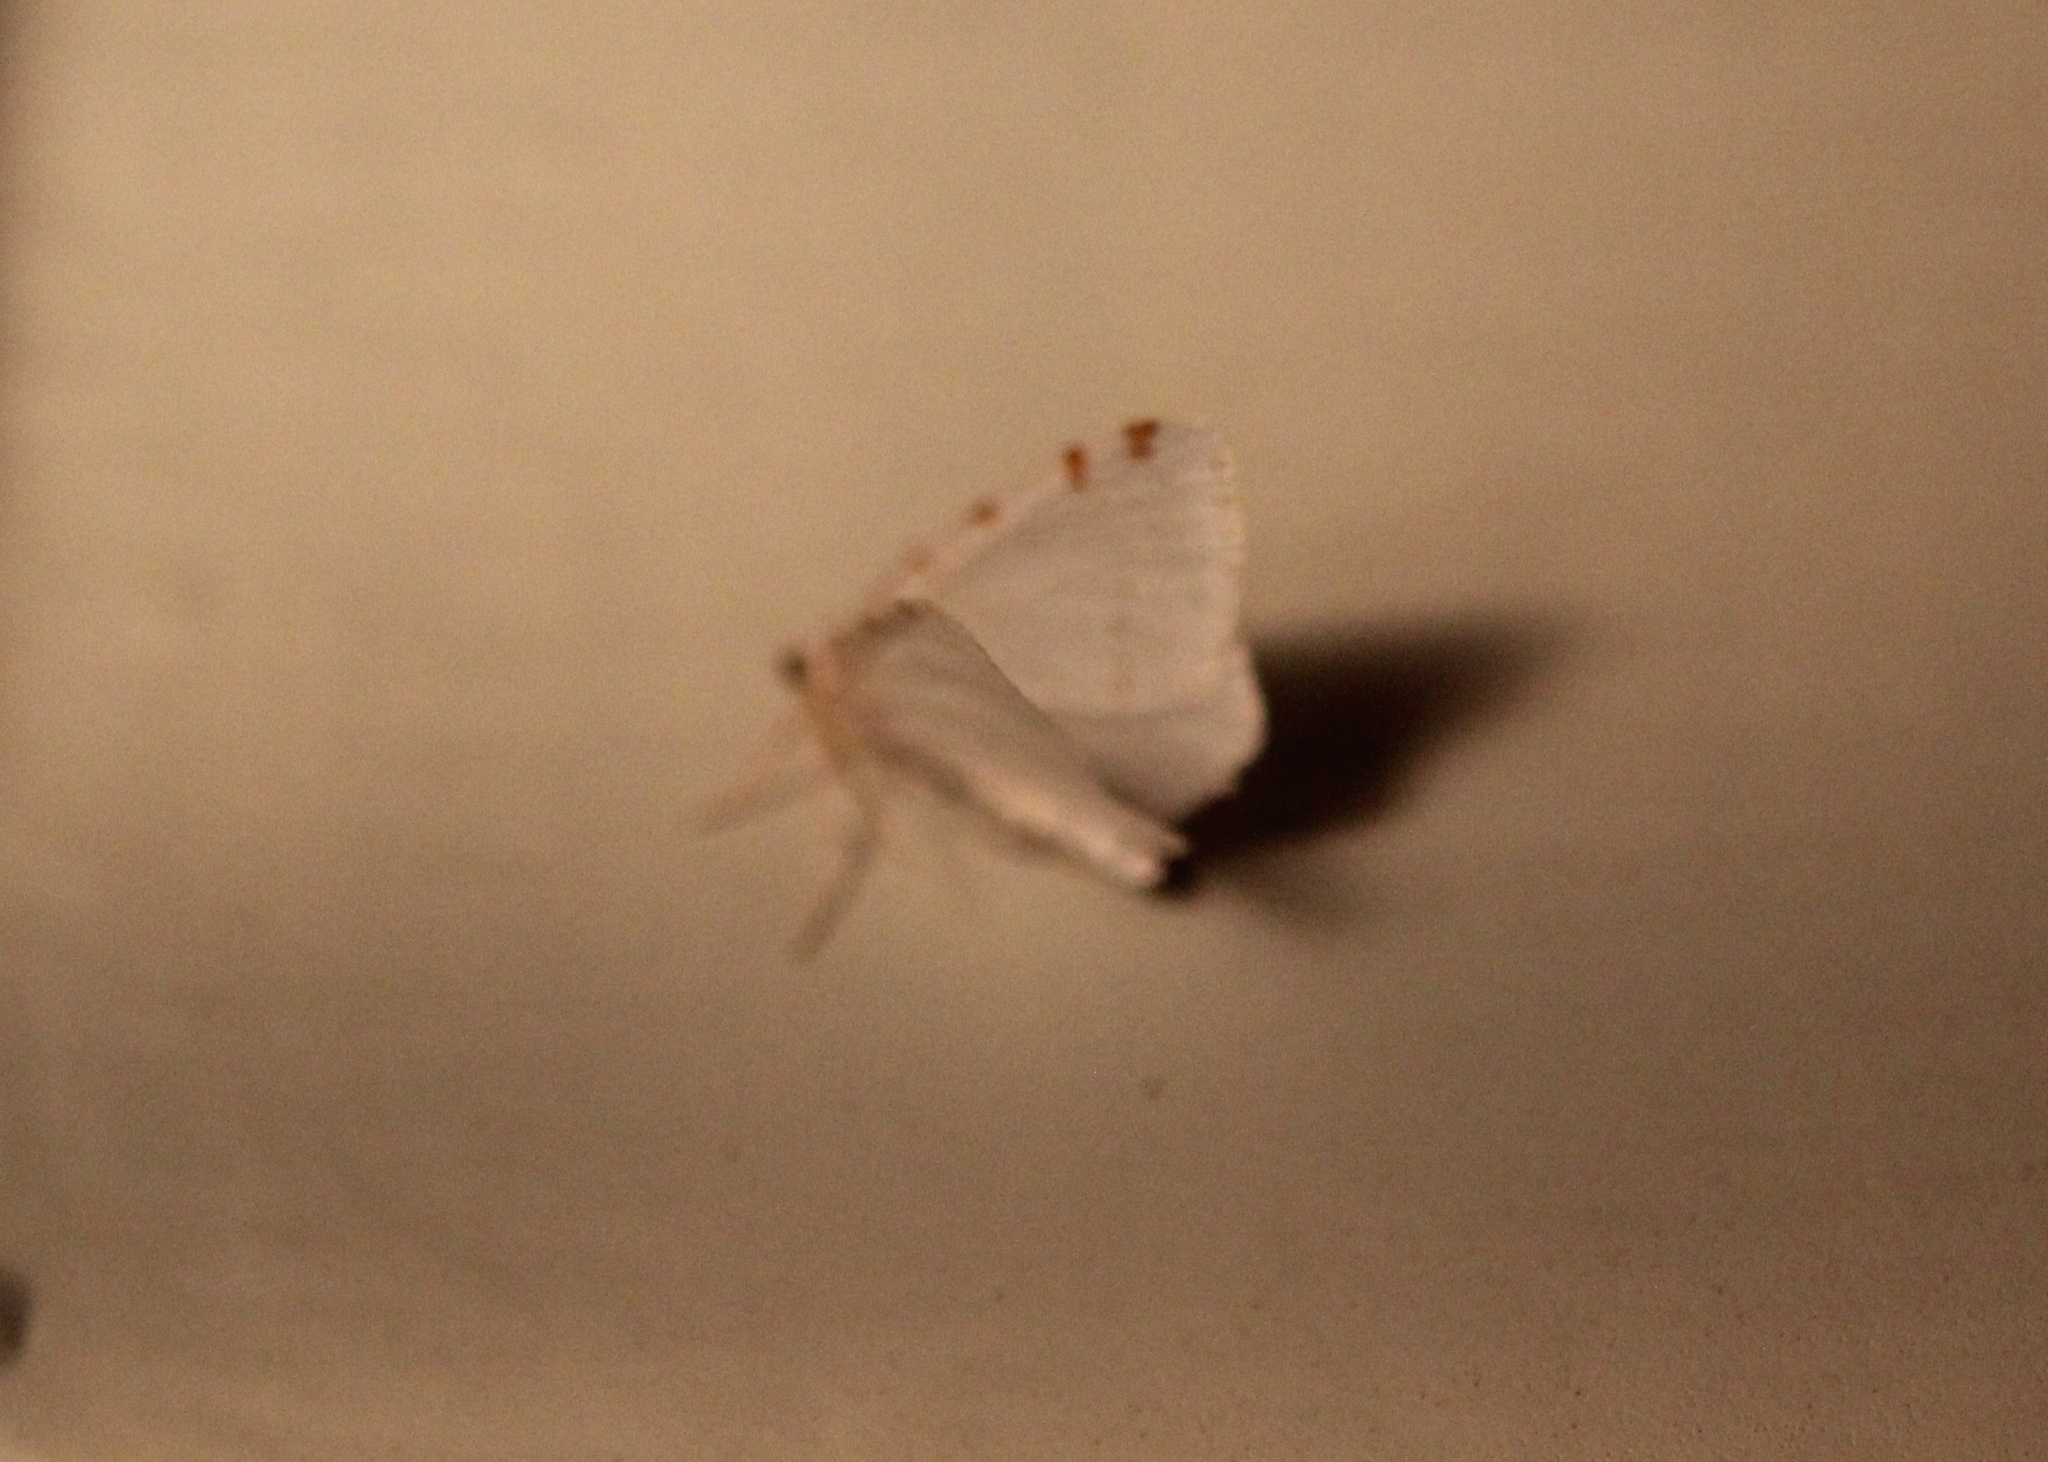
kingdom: Animalia
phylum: Arthropoda
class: Insecta
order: Lepidoptera
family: Geometridae
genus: Macaria
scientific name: Macaria pustularia
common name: Lesser maple spanworm moth
